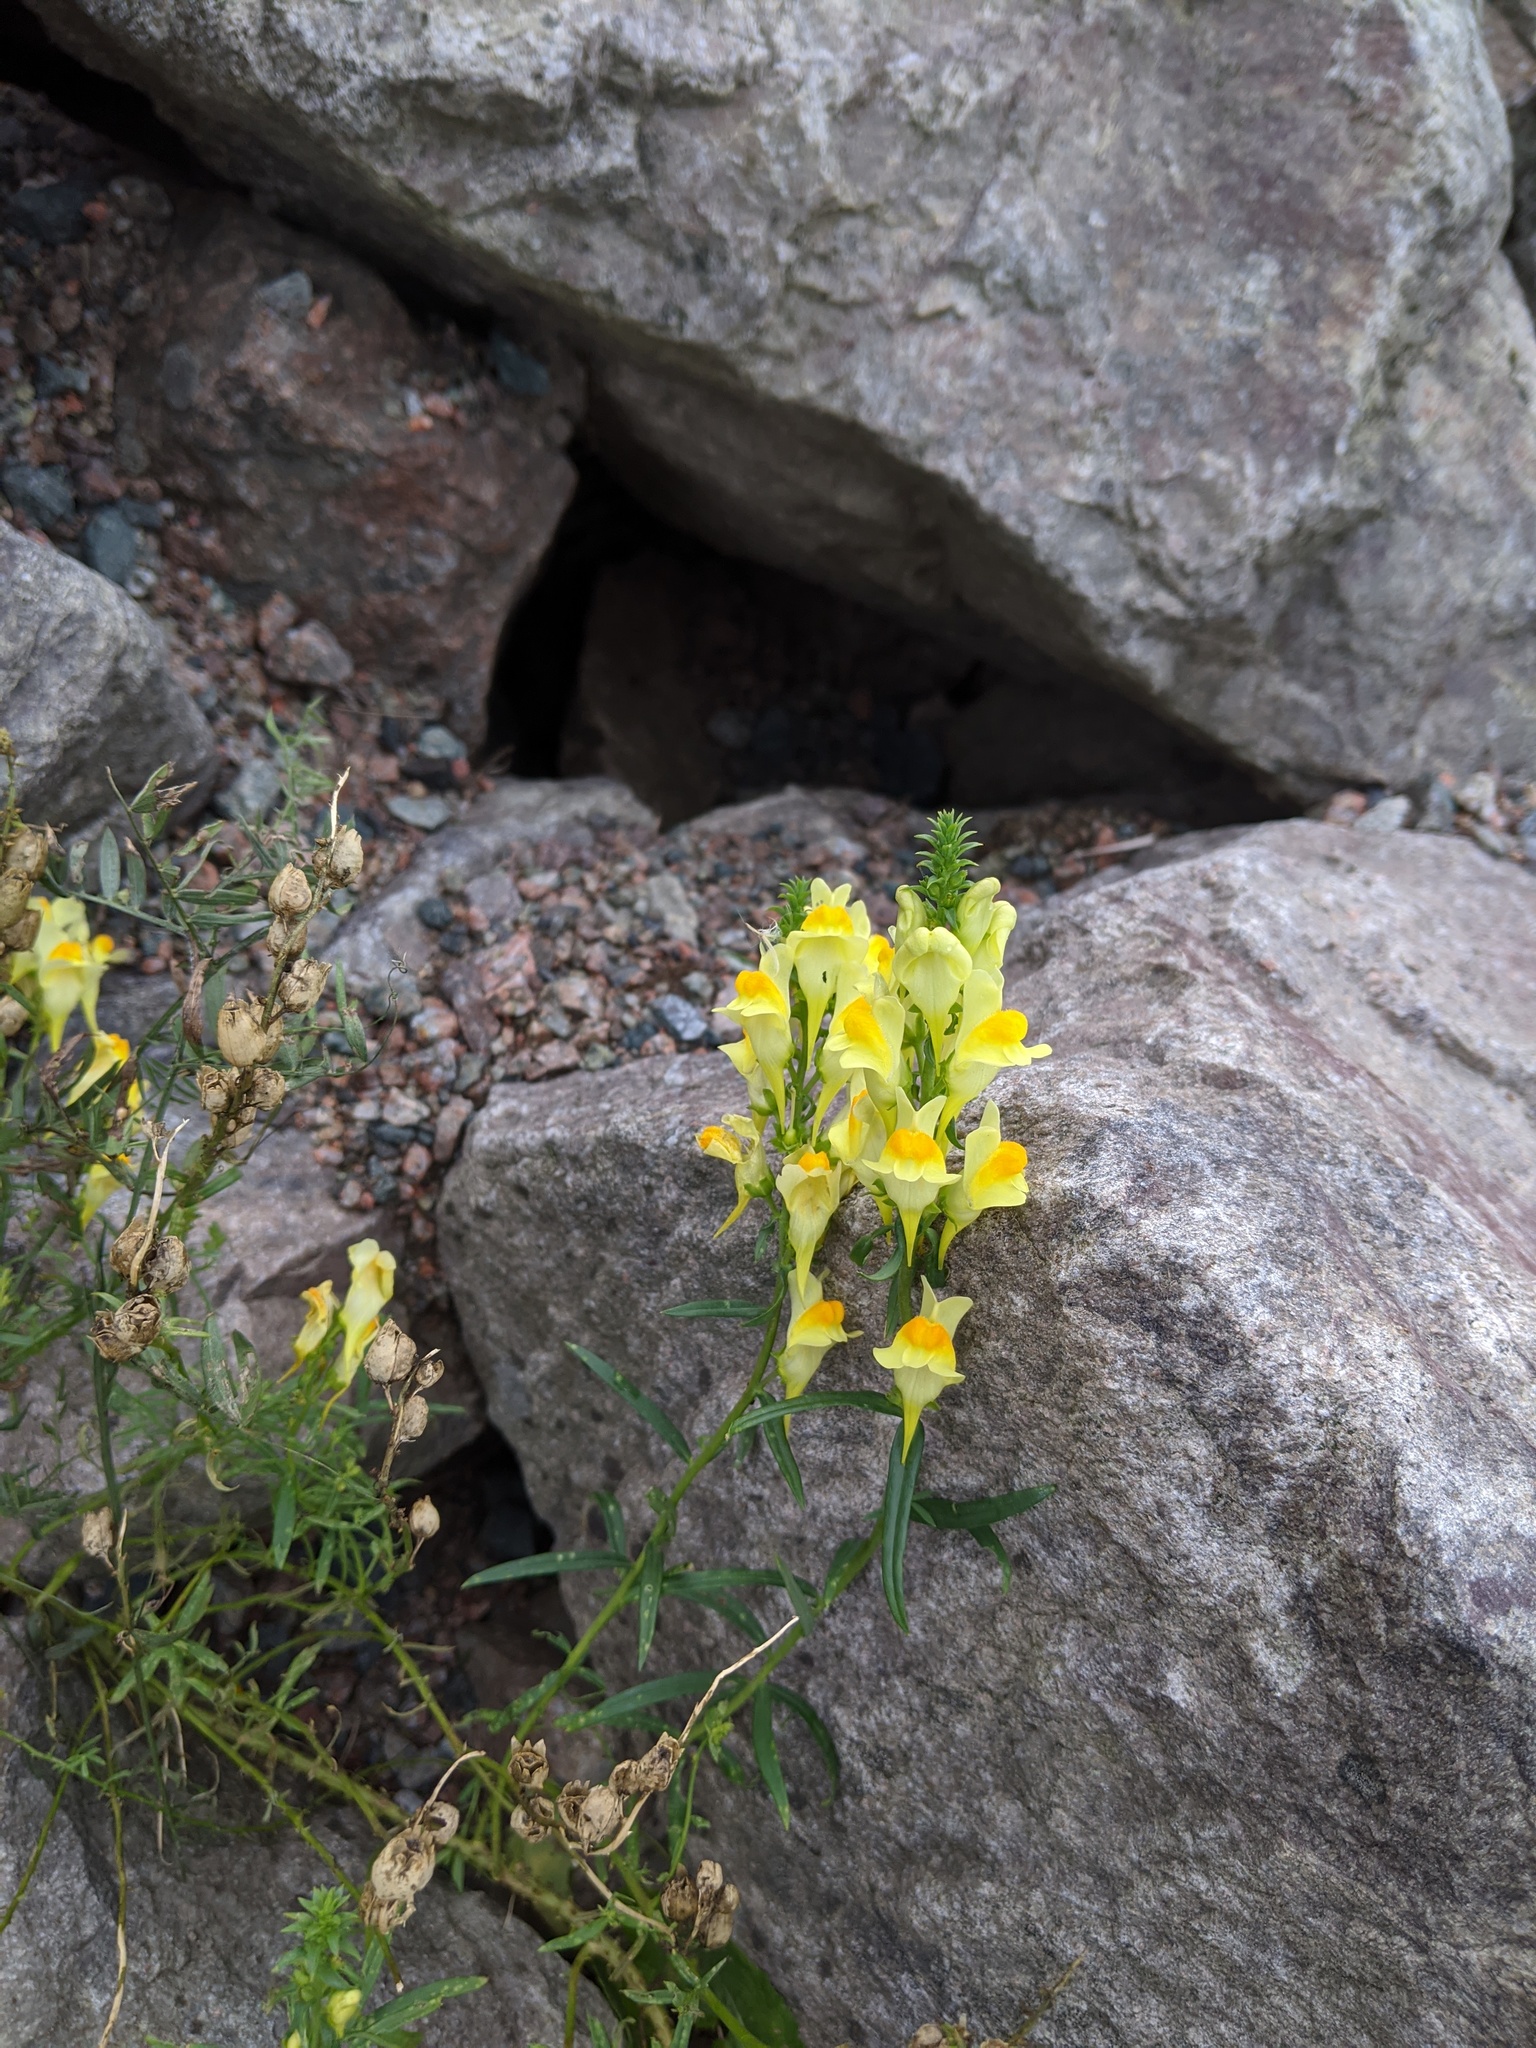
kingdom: Plantae
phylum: Tracheophyta
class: Magnoliopsida
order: Lamiales
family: Plantaginaceae
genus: Linaria
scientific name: Linaria vulgaris
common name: Butter and eggs
